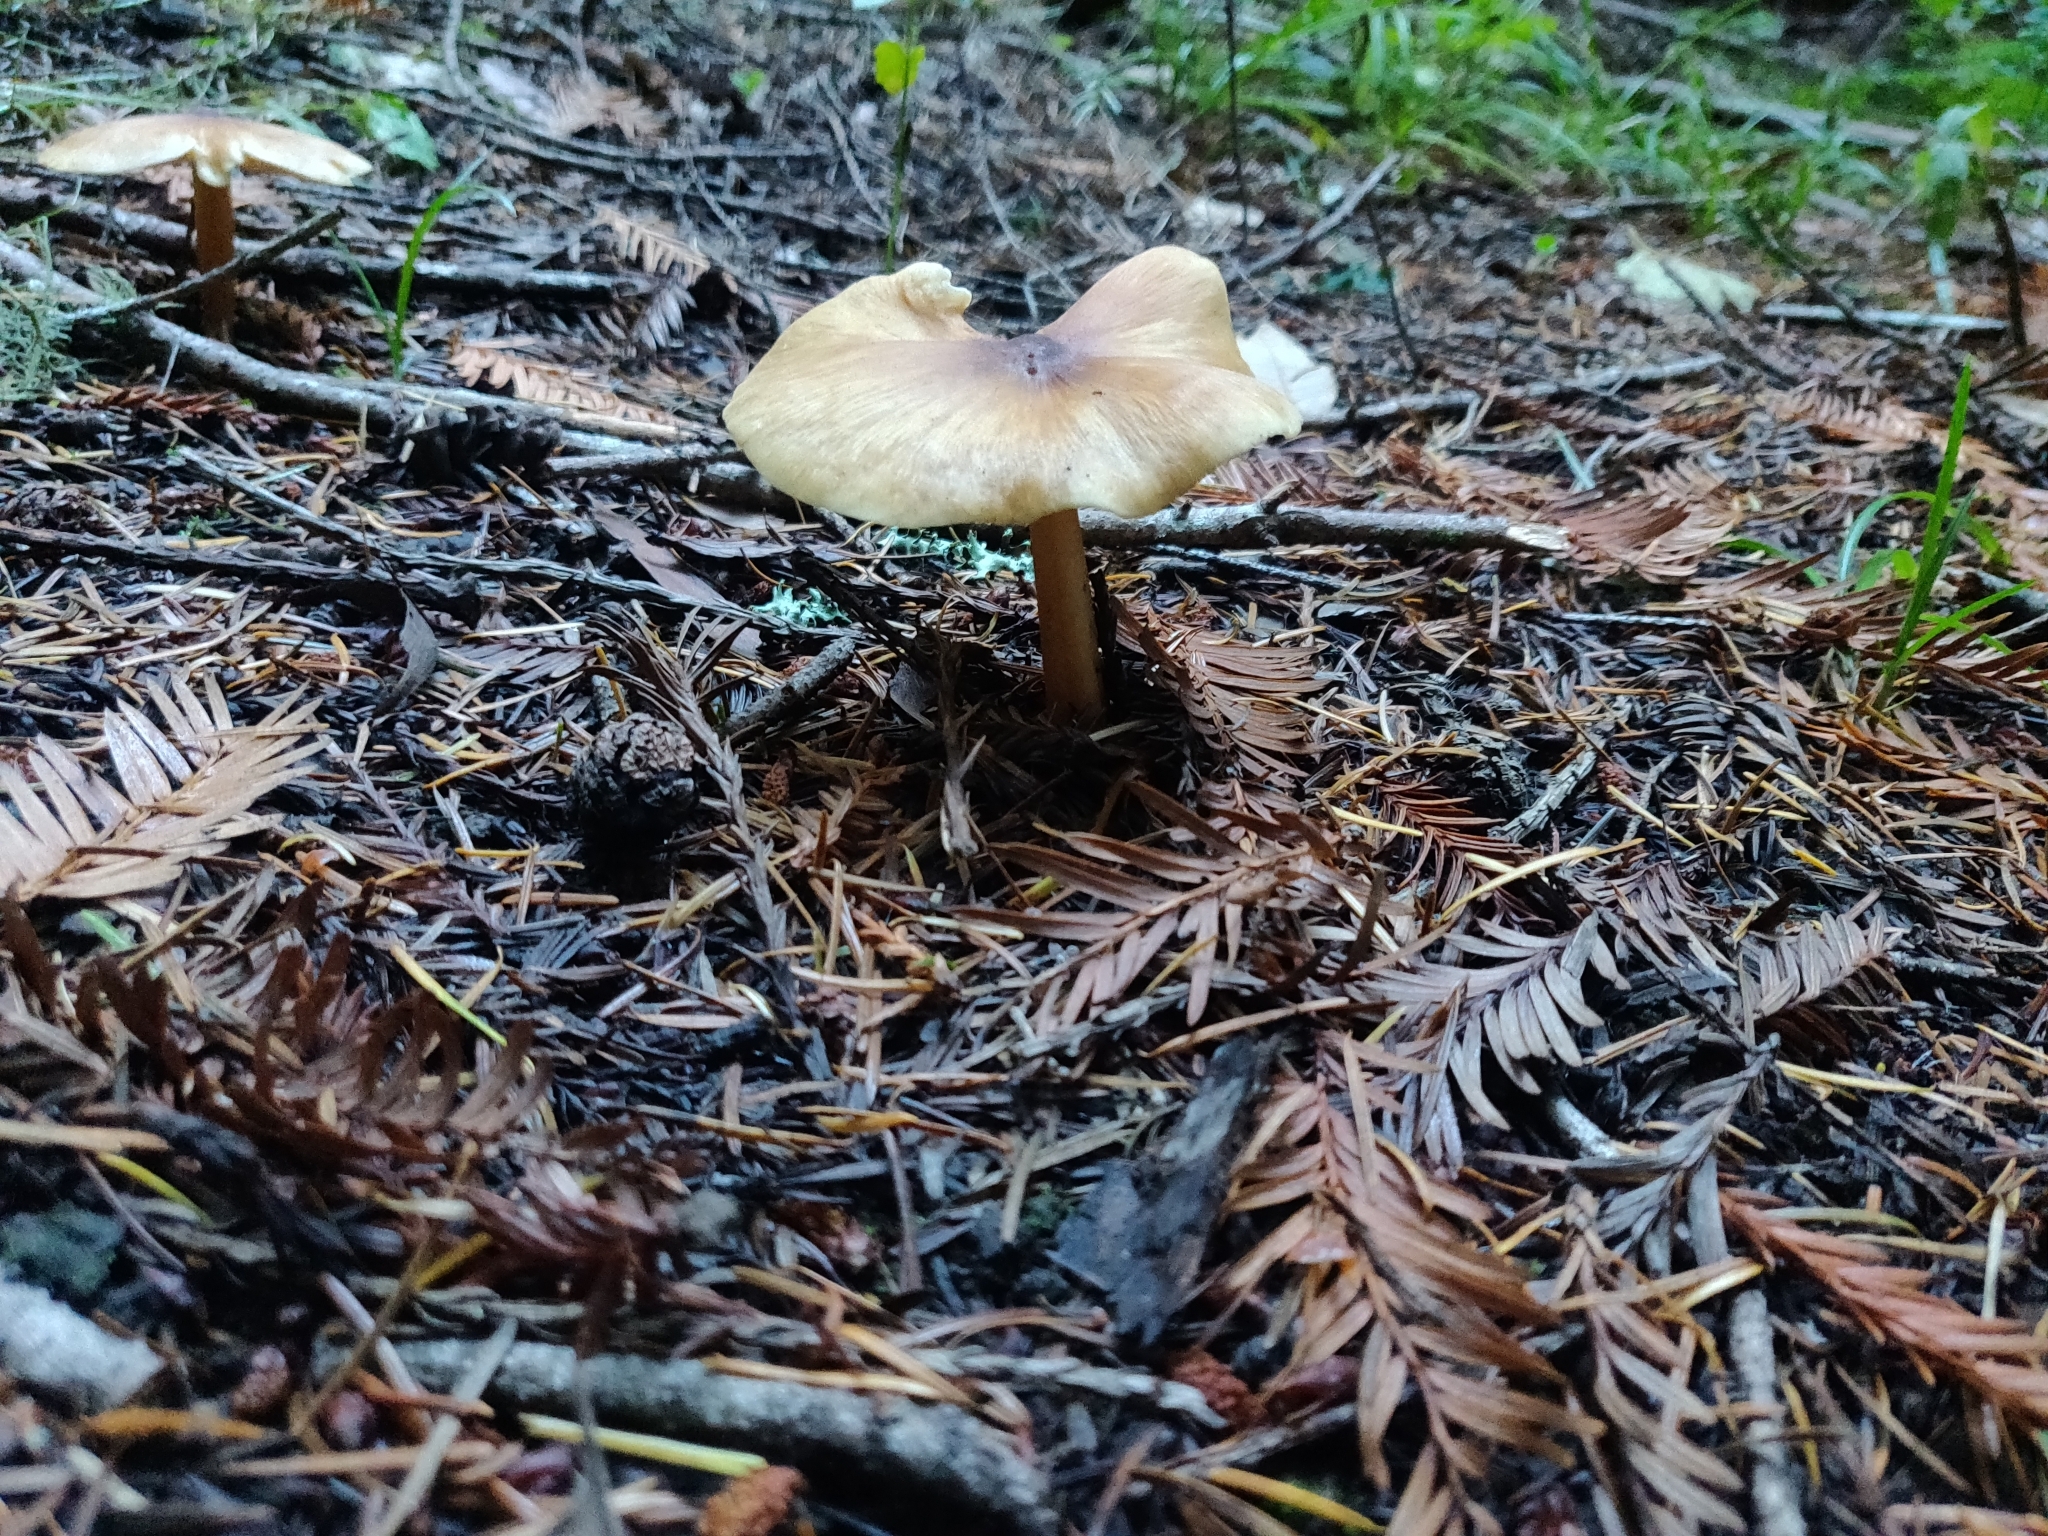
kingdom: Fungi
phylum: Basidiomycota
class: Agaricomycetes
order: Agaricales
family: Tricholomataceae
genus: Caulorhiza
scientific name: Caulorhiza umbonata
